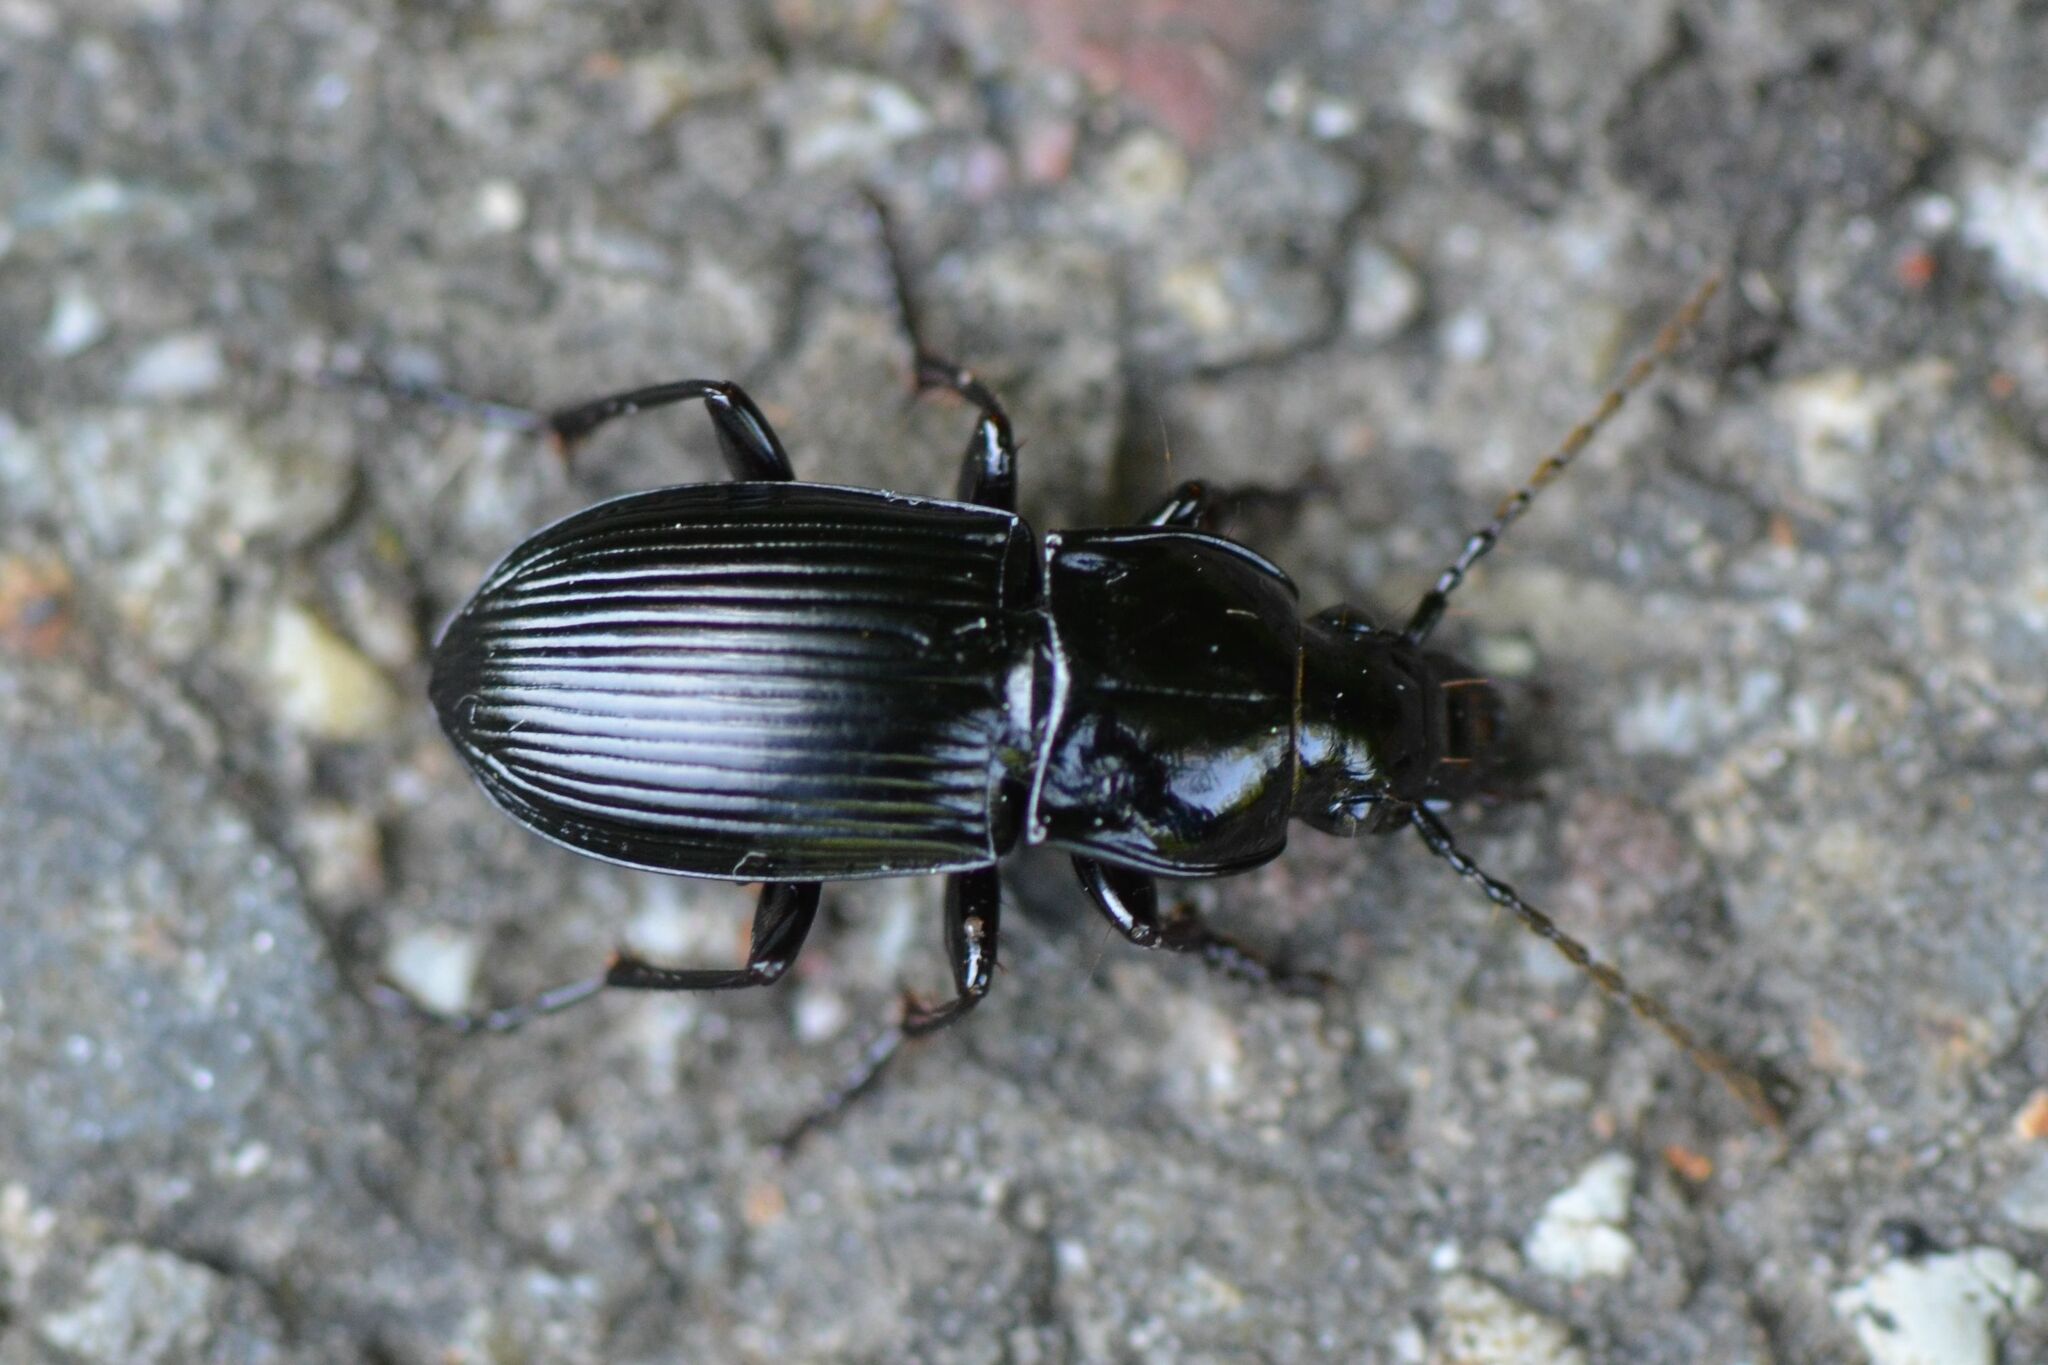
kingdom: Animalia
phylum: Arthropoda
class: Insecta
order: Coleoptera
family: Carabidae
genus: Abax
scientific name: Abax parallelus
